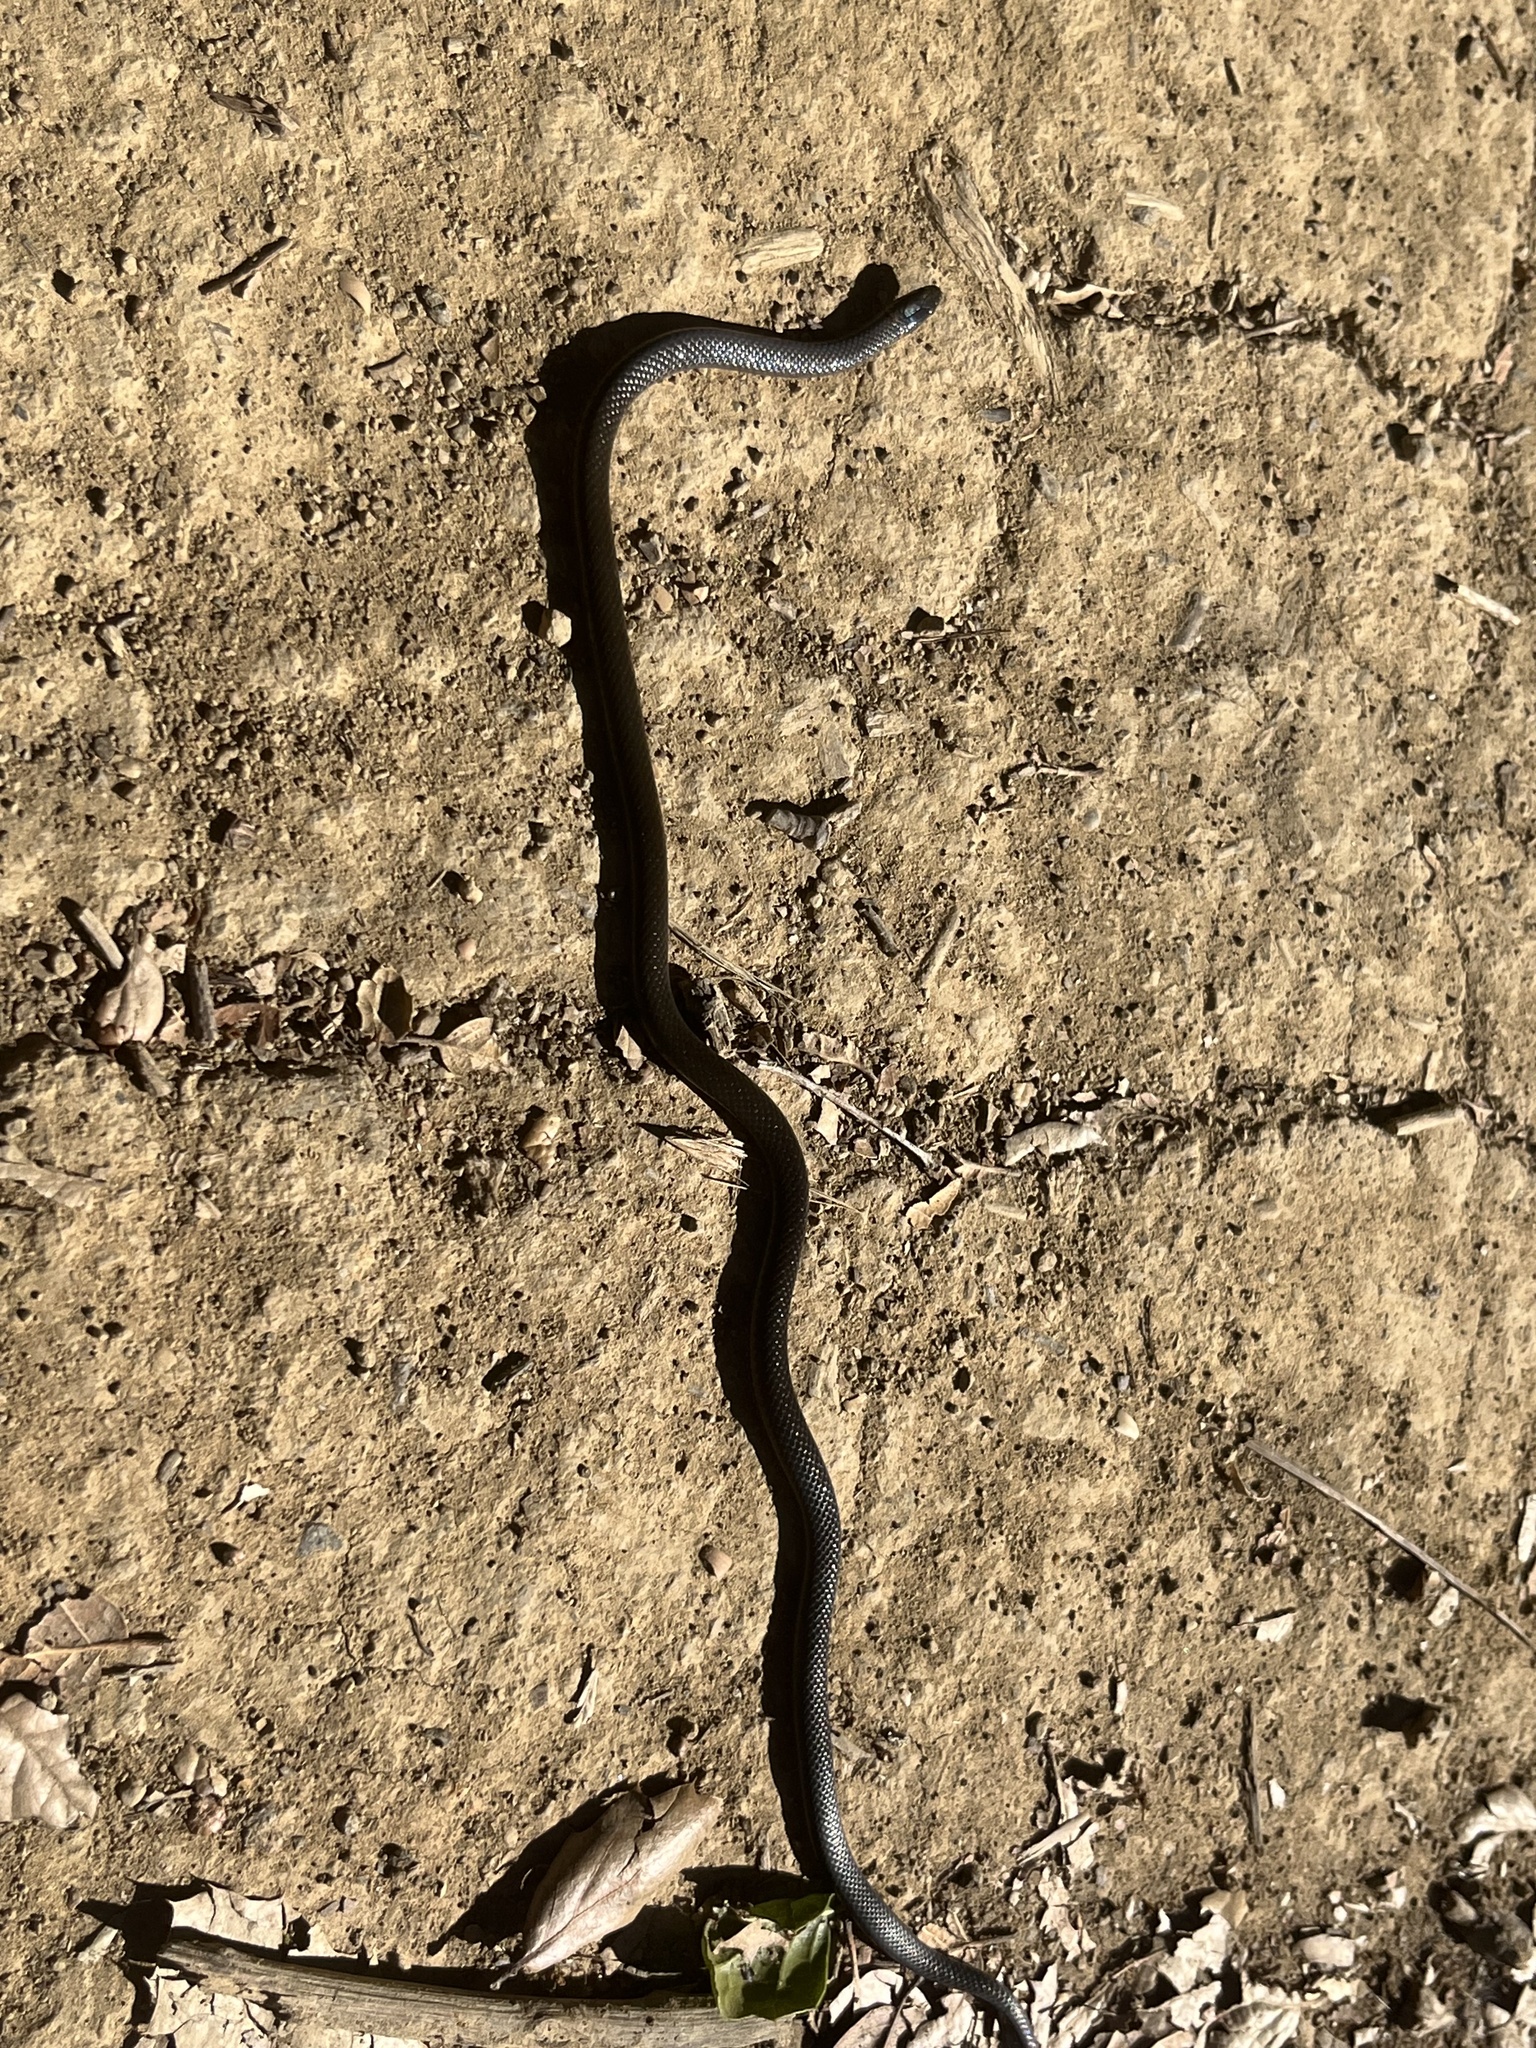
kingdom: Animalia
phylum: Chordata
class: Squamata
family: Colubridae
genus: Diadophis
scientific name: Diadophis punctatus
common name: Ringneck snake
